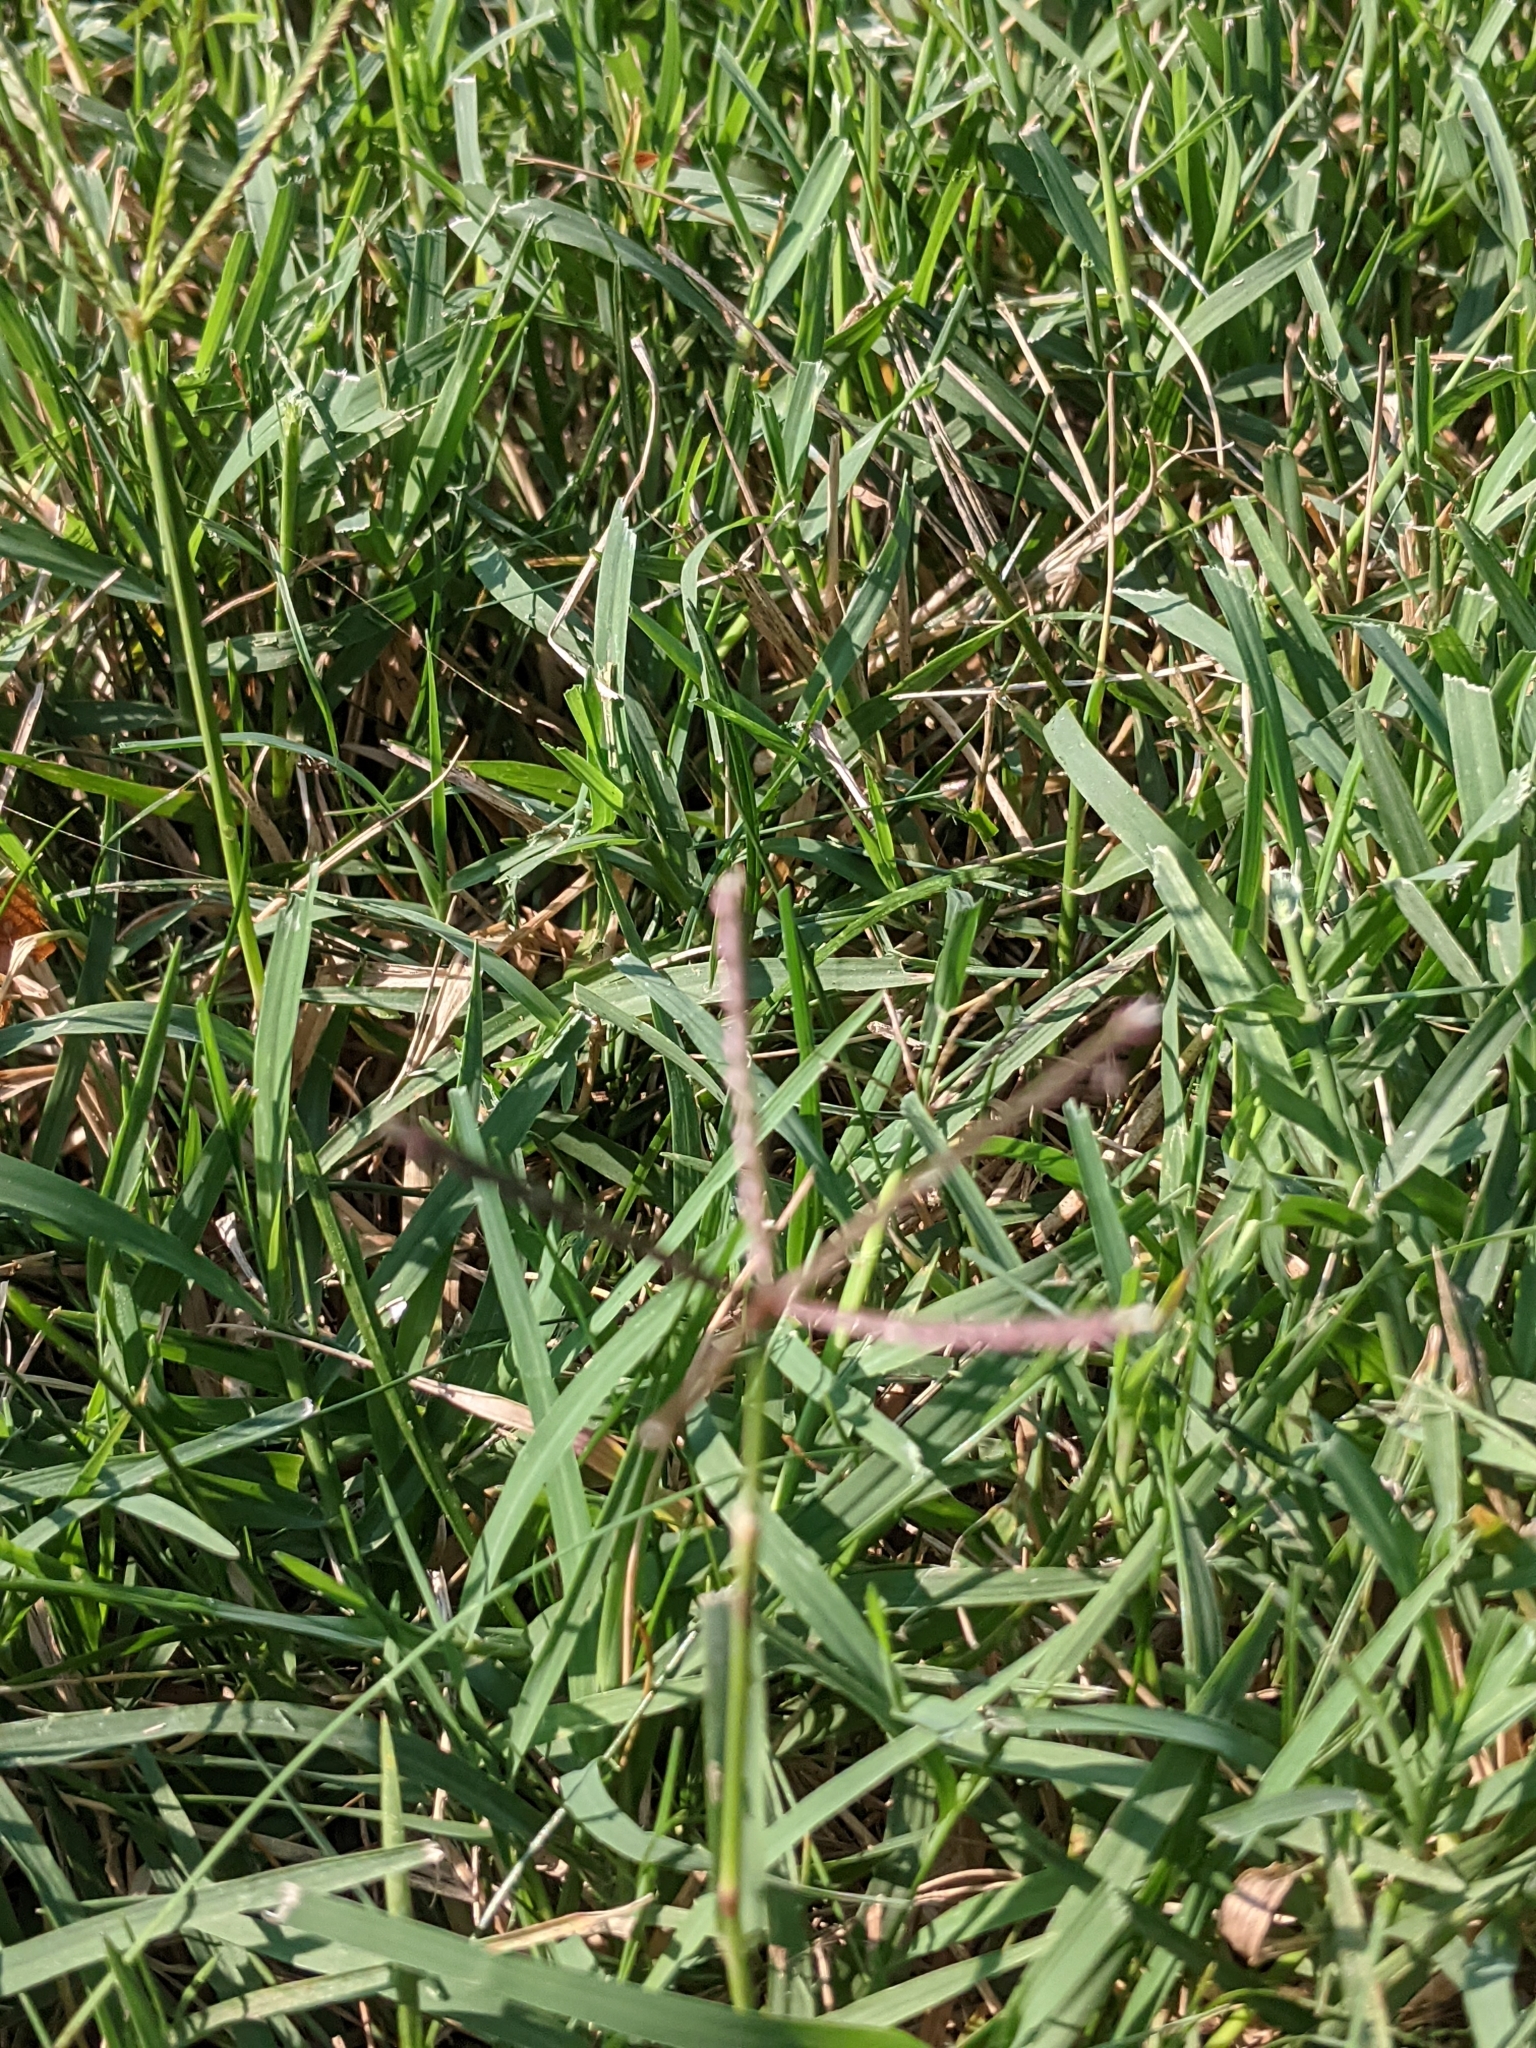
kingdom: Plantae
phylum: Tracheophyta
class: Liliopsida
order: Poales
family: Poaceae
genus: Cynodon
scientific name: Cynodon dactylon
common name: Bermuda grass
